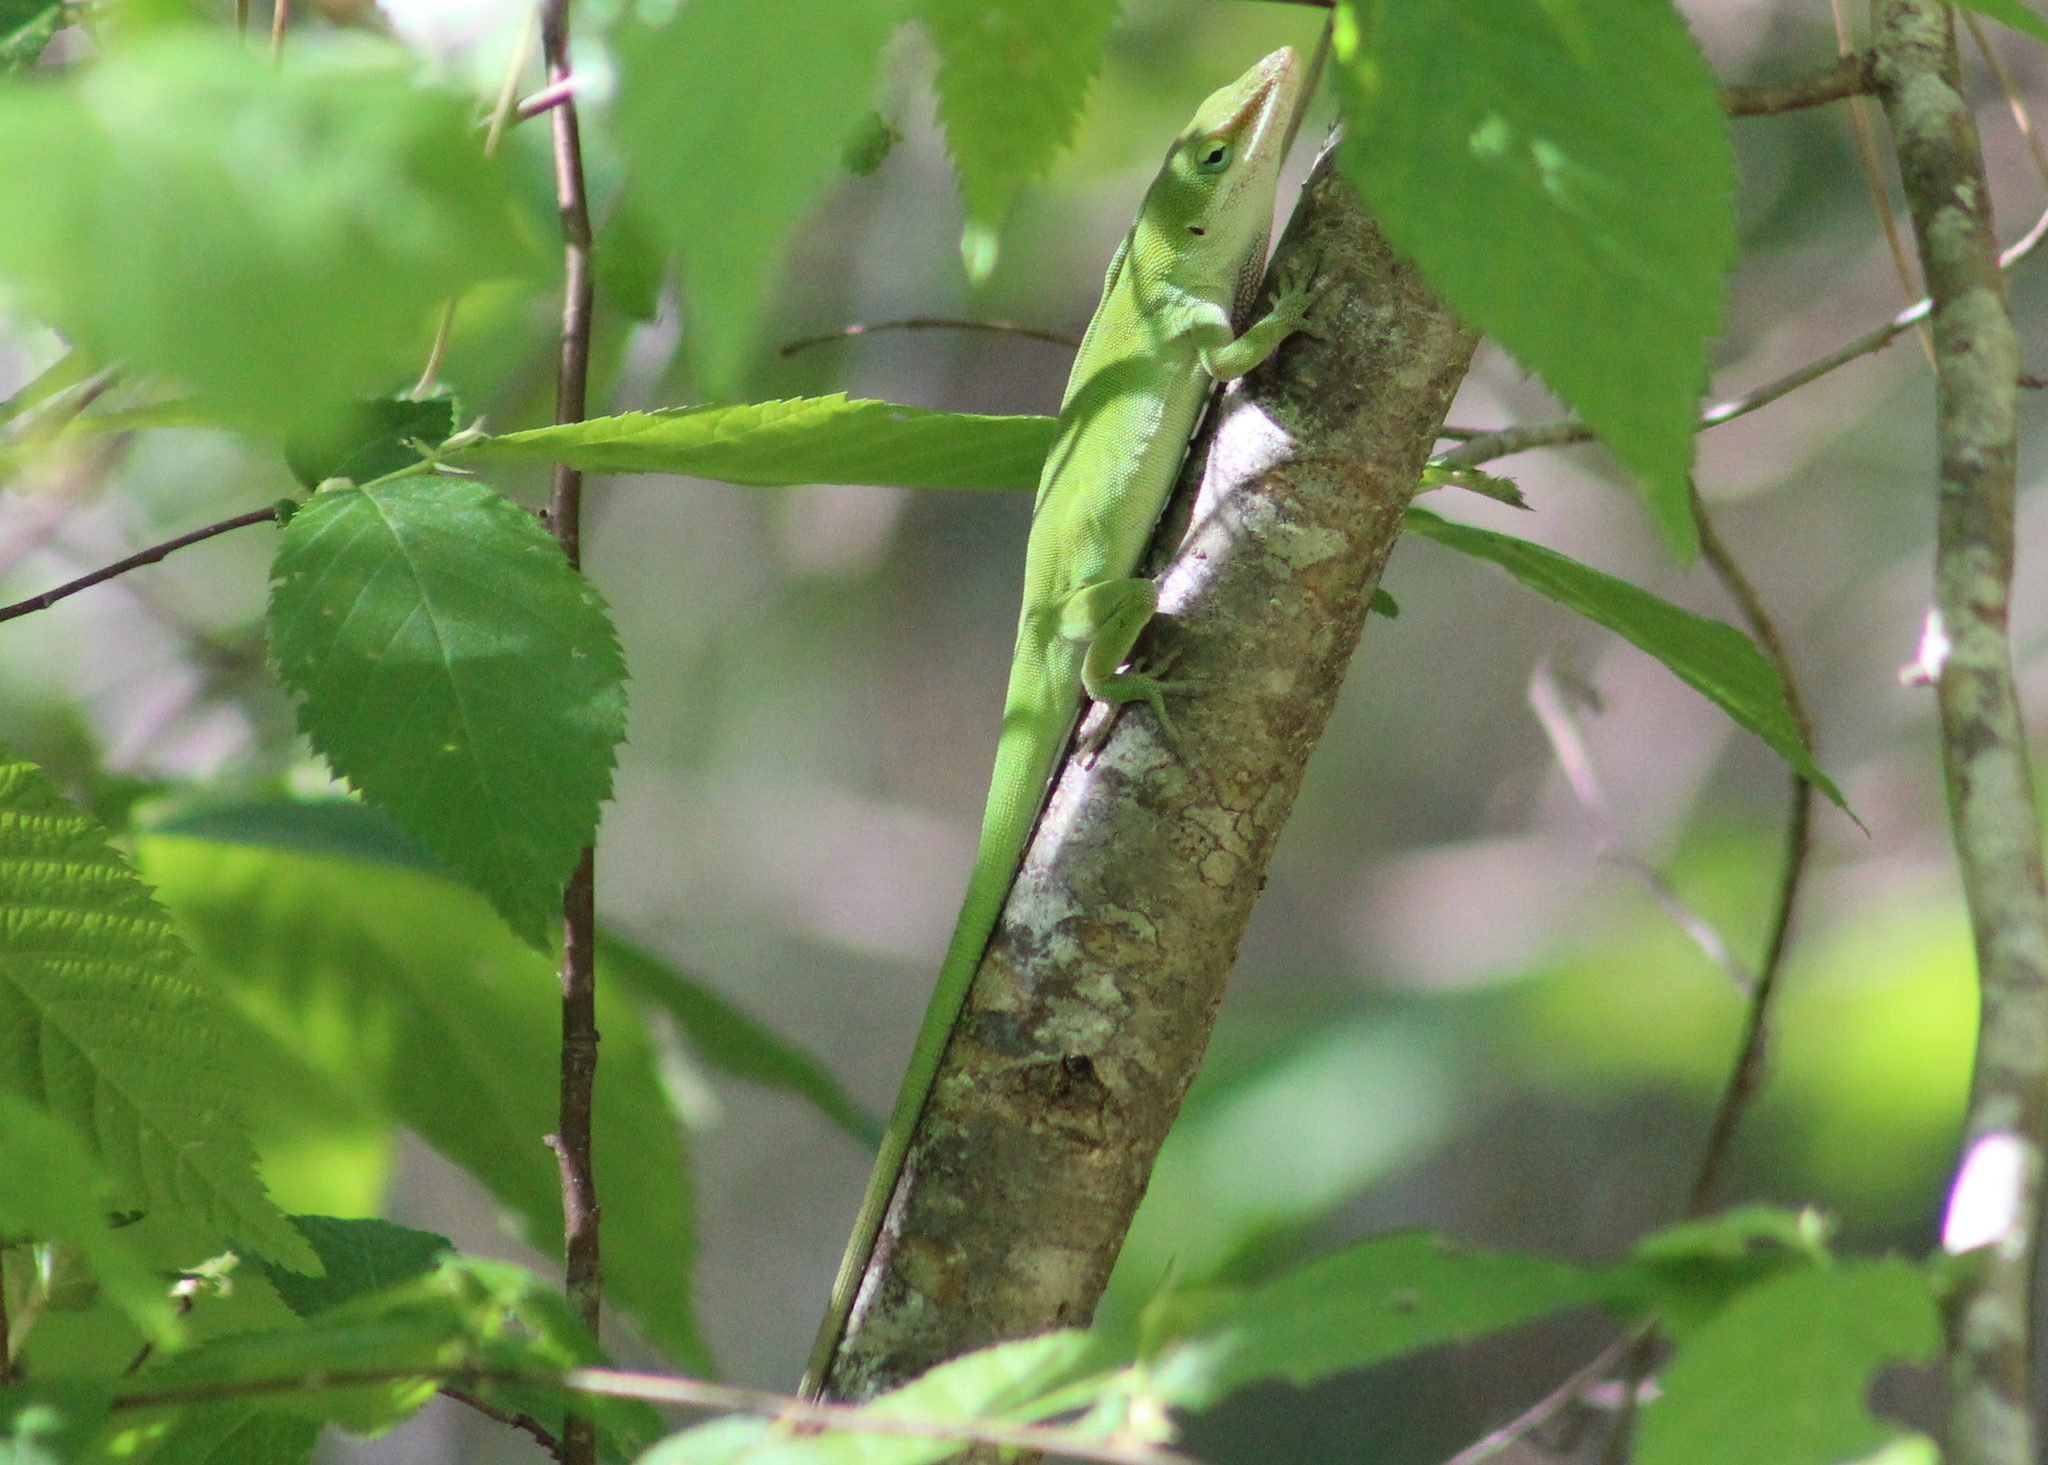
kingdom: Animalia
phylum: Chordata
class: Squamata
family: Dactyloidae
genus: Anolis
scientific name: Anolis carolinensis
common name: Green anole
